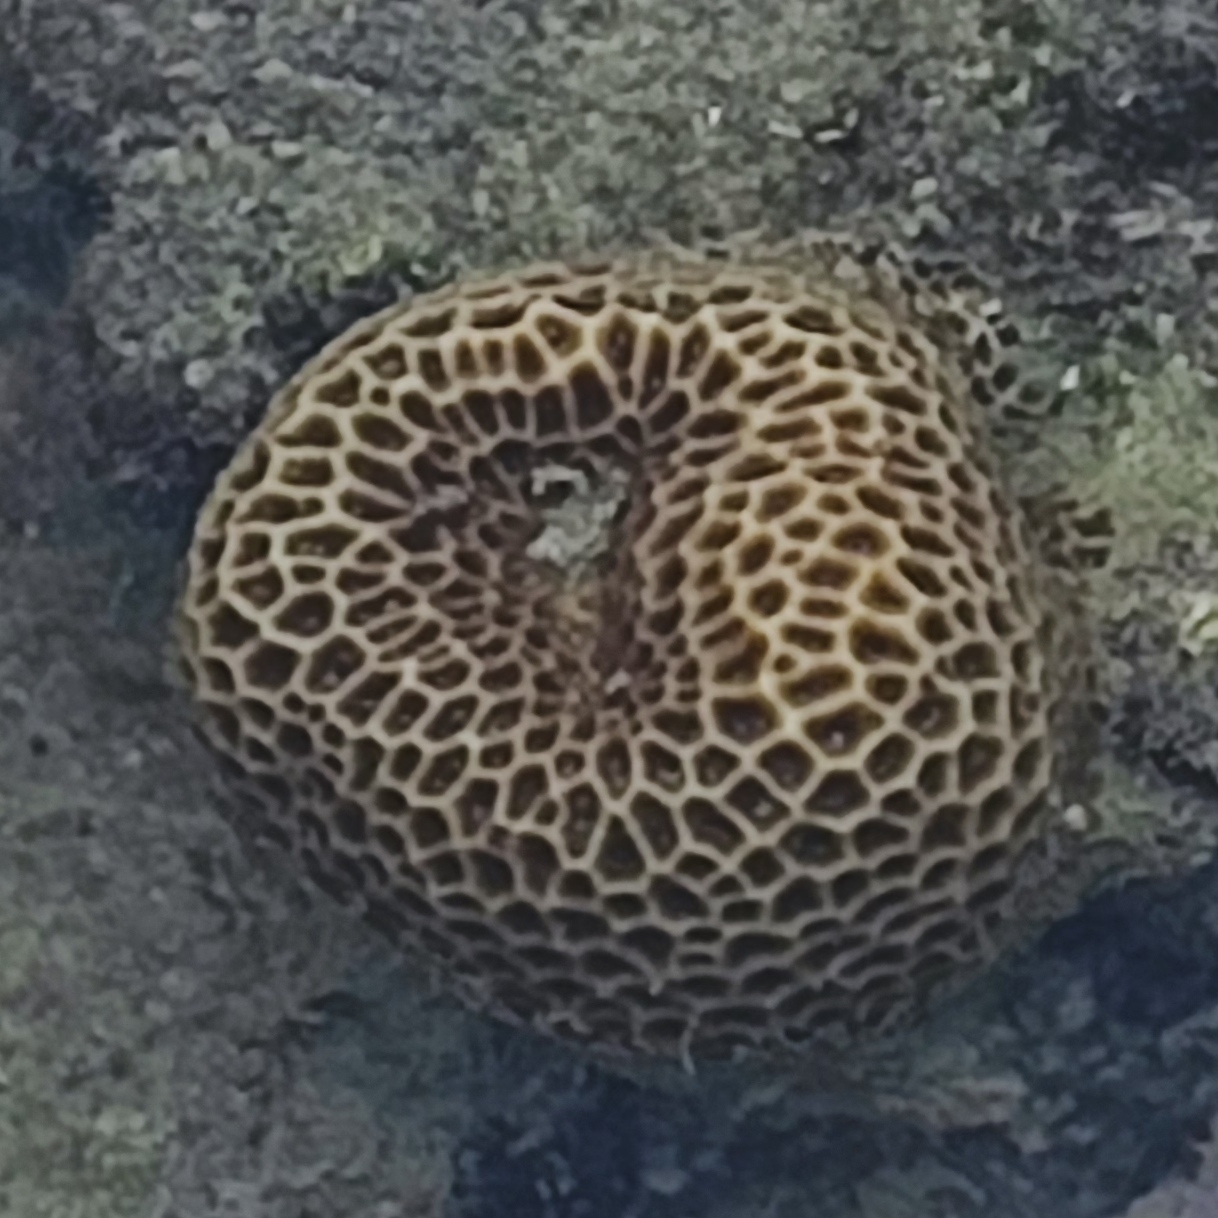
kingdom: Animalia
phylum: Cnidaria
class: Anthozoa
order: Scleractinia
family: Merulinidae
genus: Coelastrea
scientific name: Coelastrea aspera
